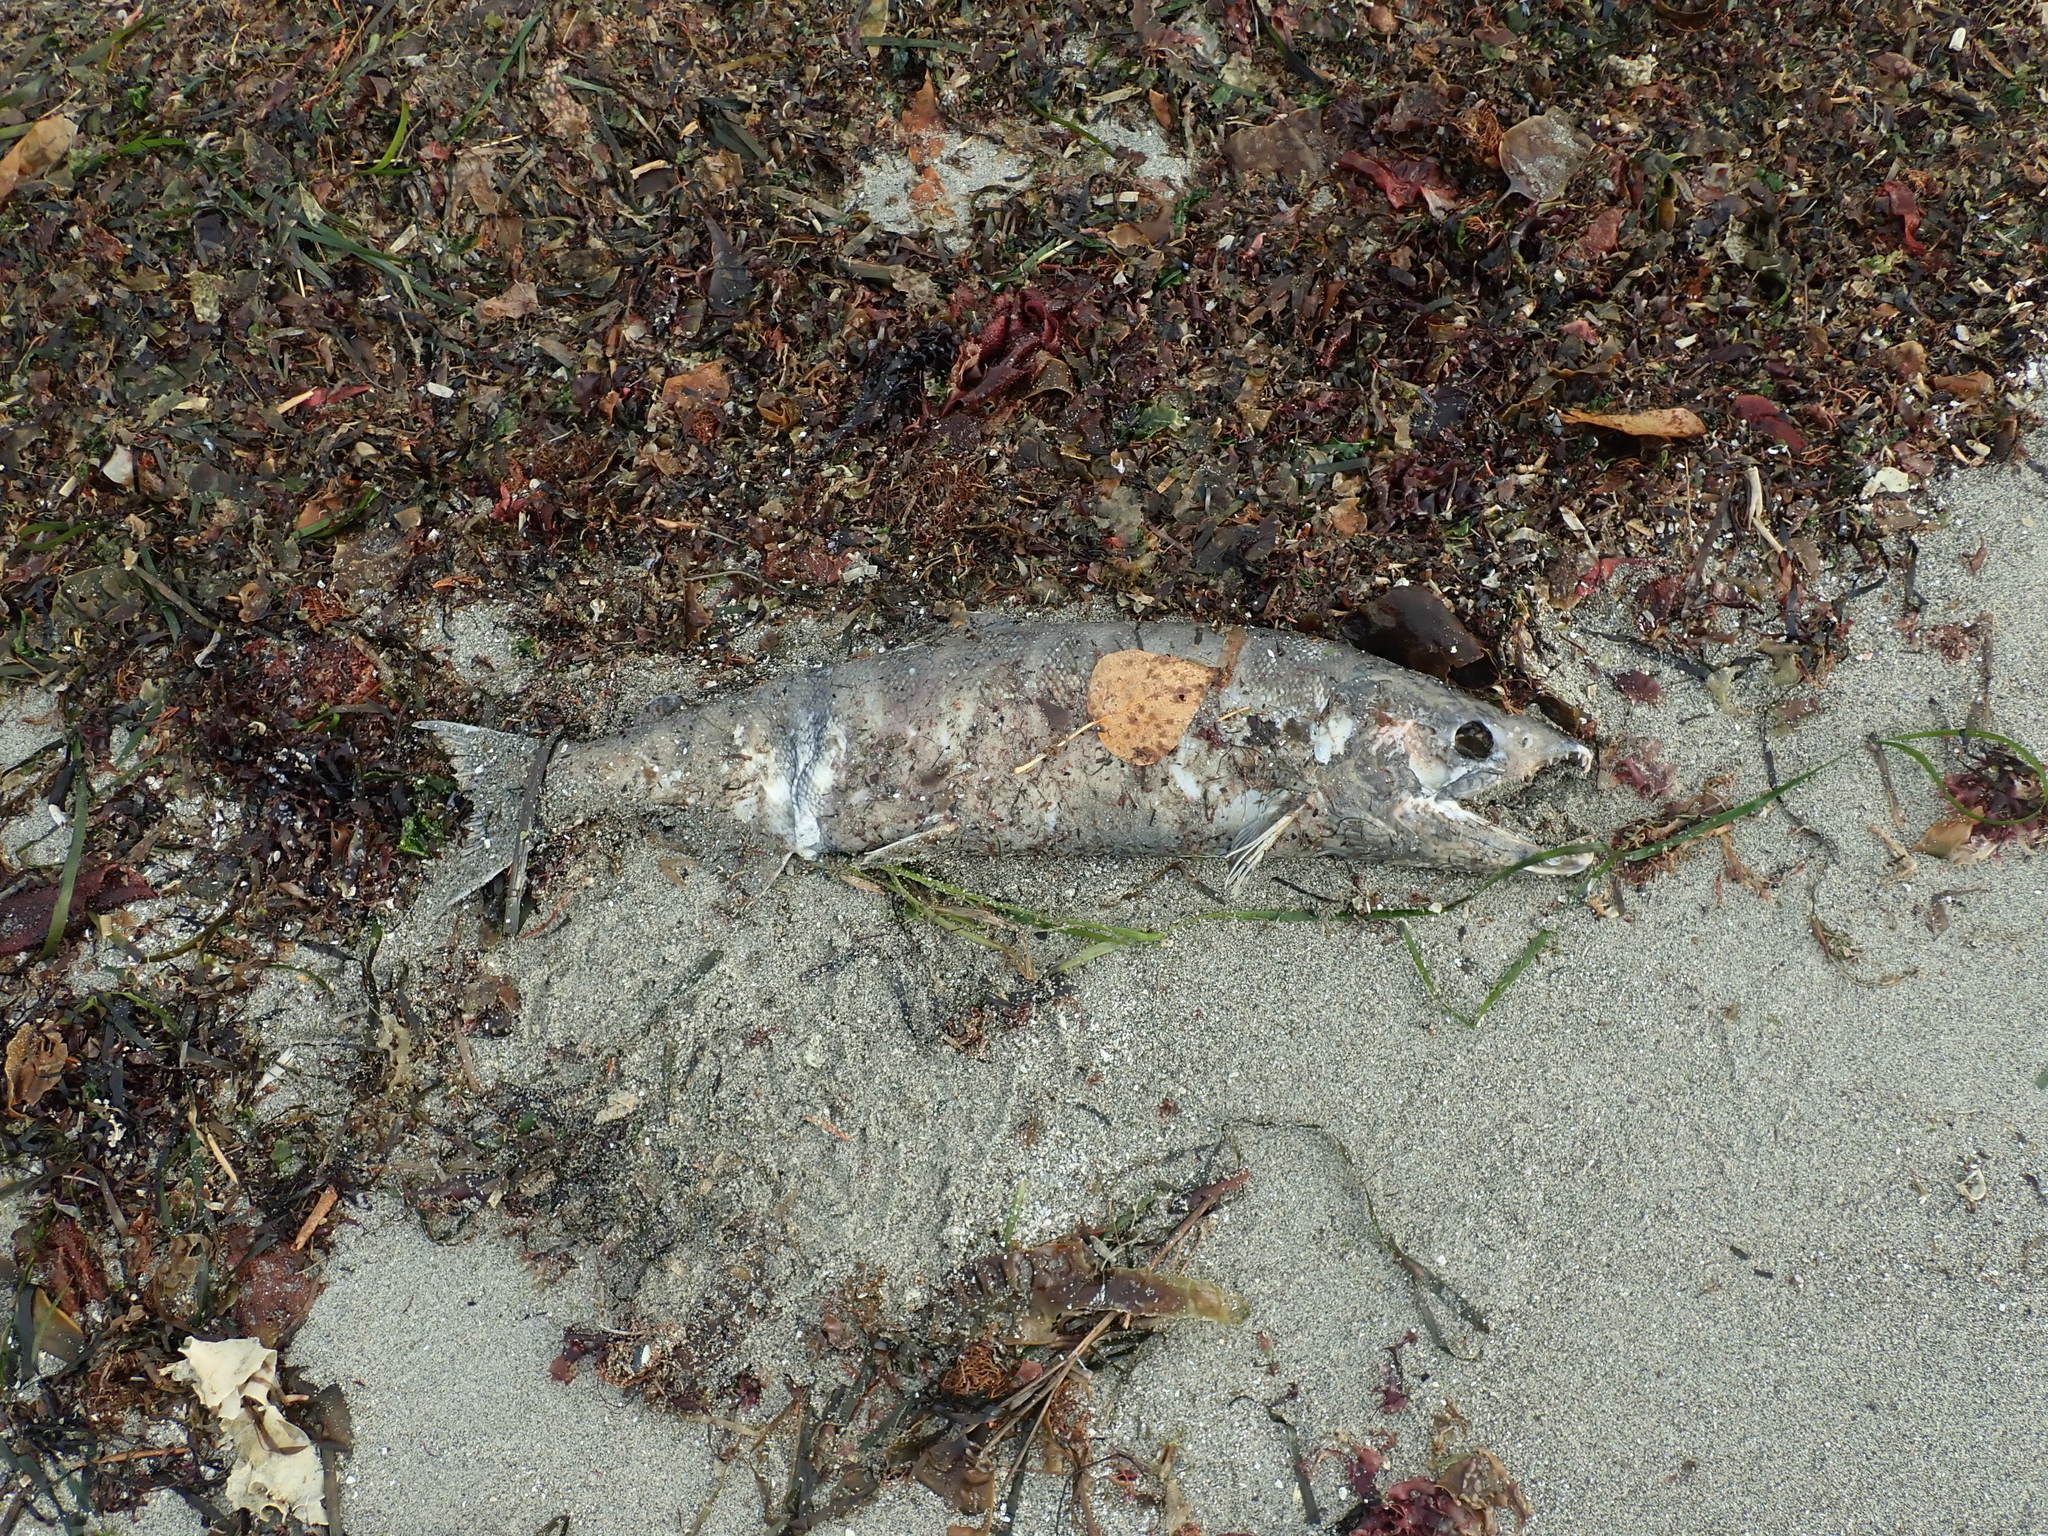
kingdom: Animalia
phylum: Chordata
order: Salmoniformes
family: Salmonidae
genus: Oncorhynchus
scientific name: Oncorhynchus keta
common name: Chum salmon
